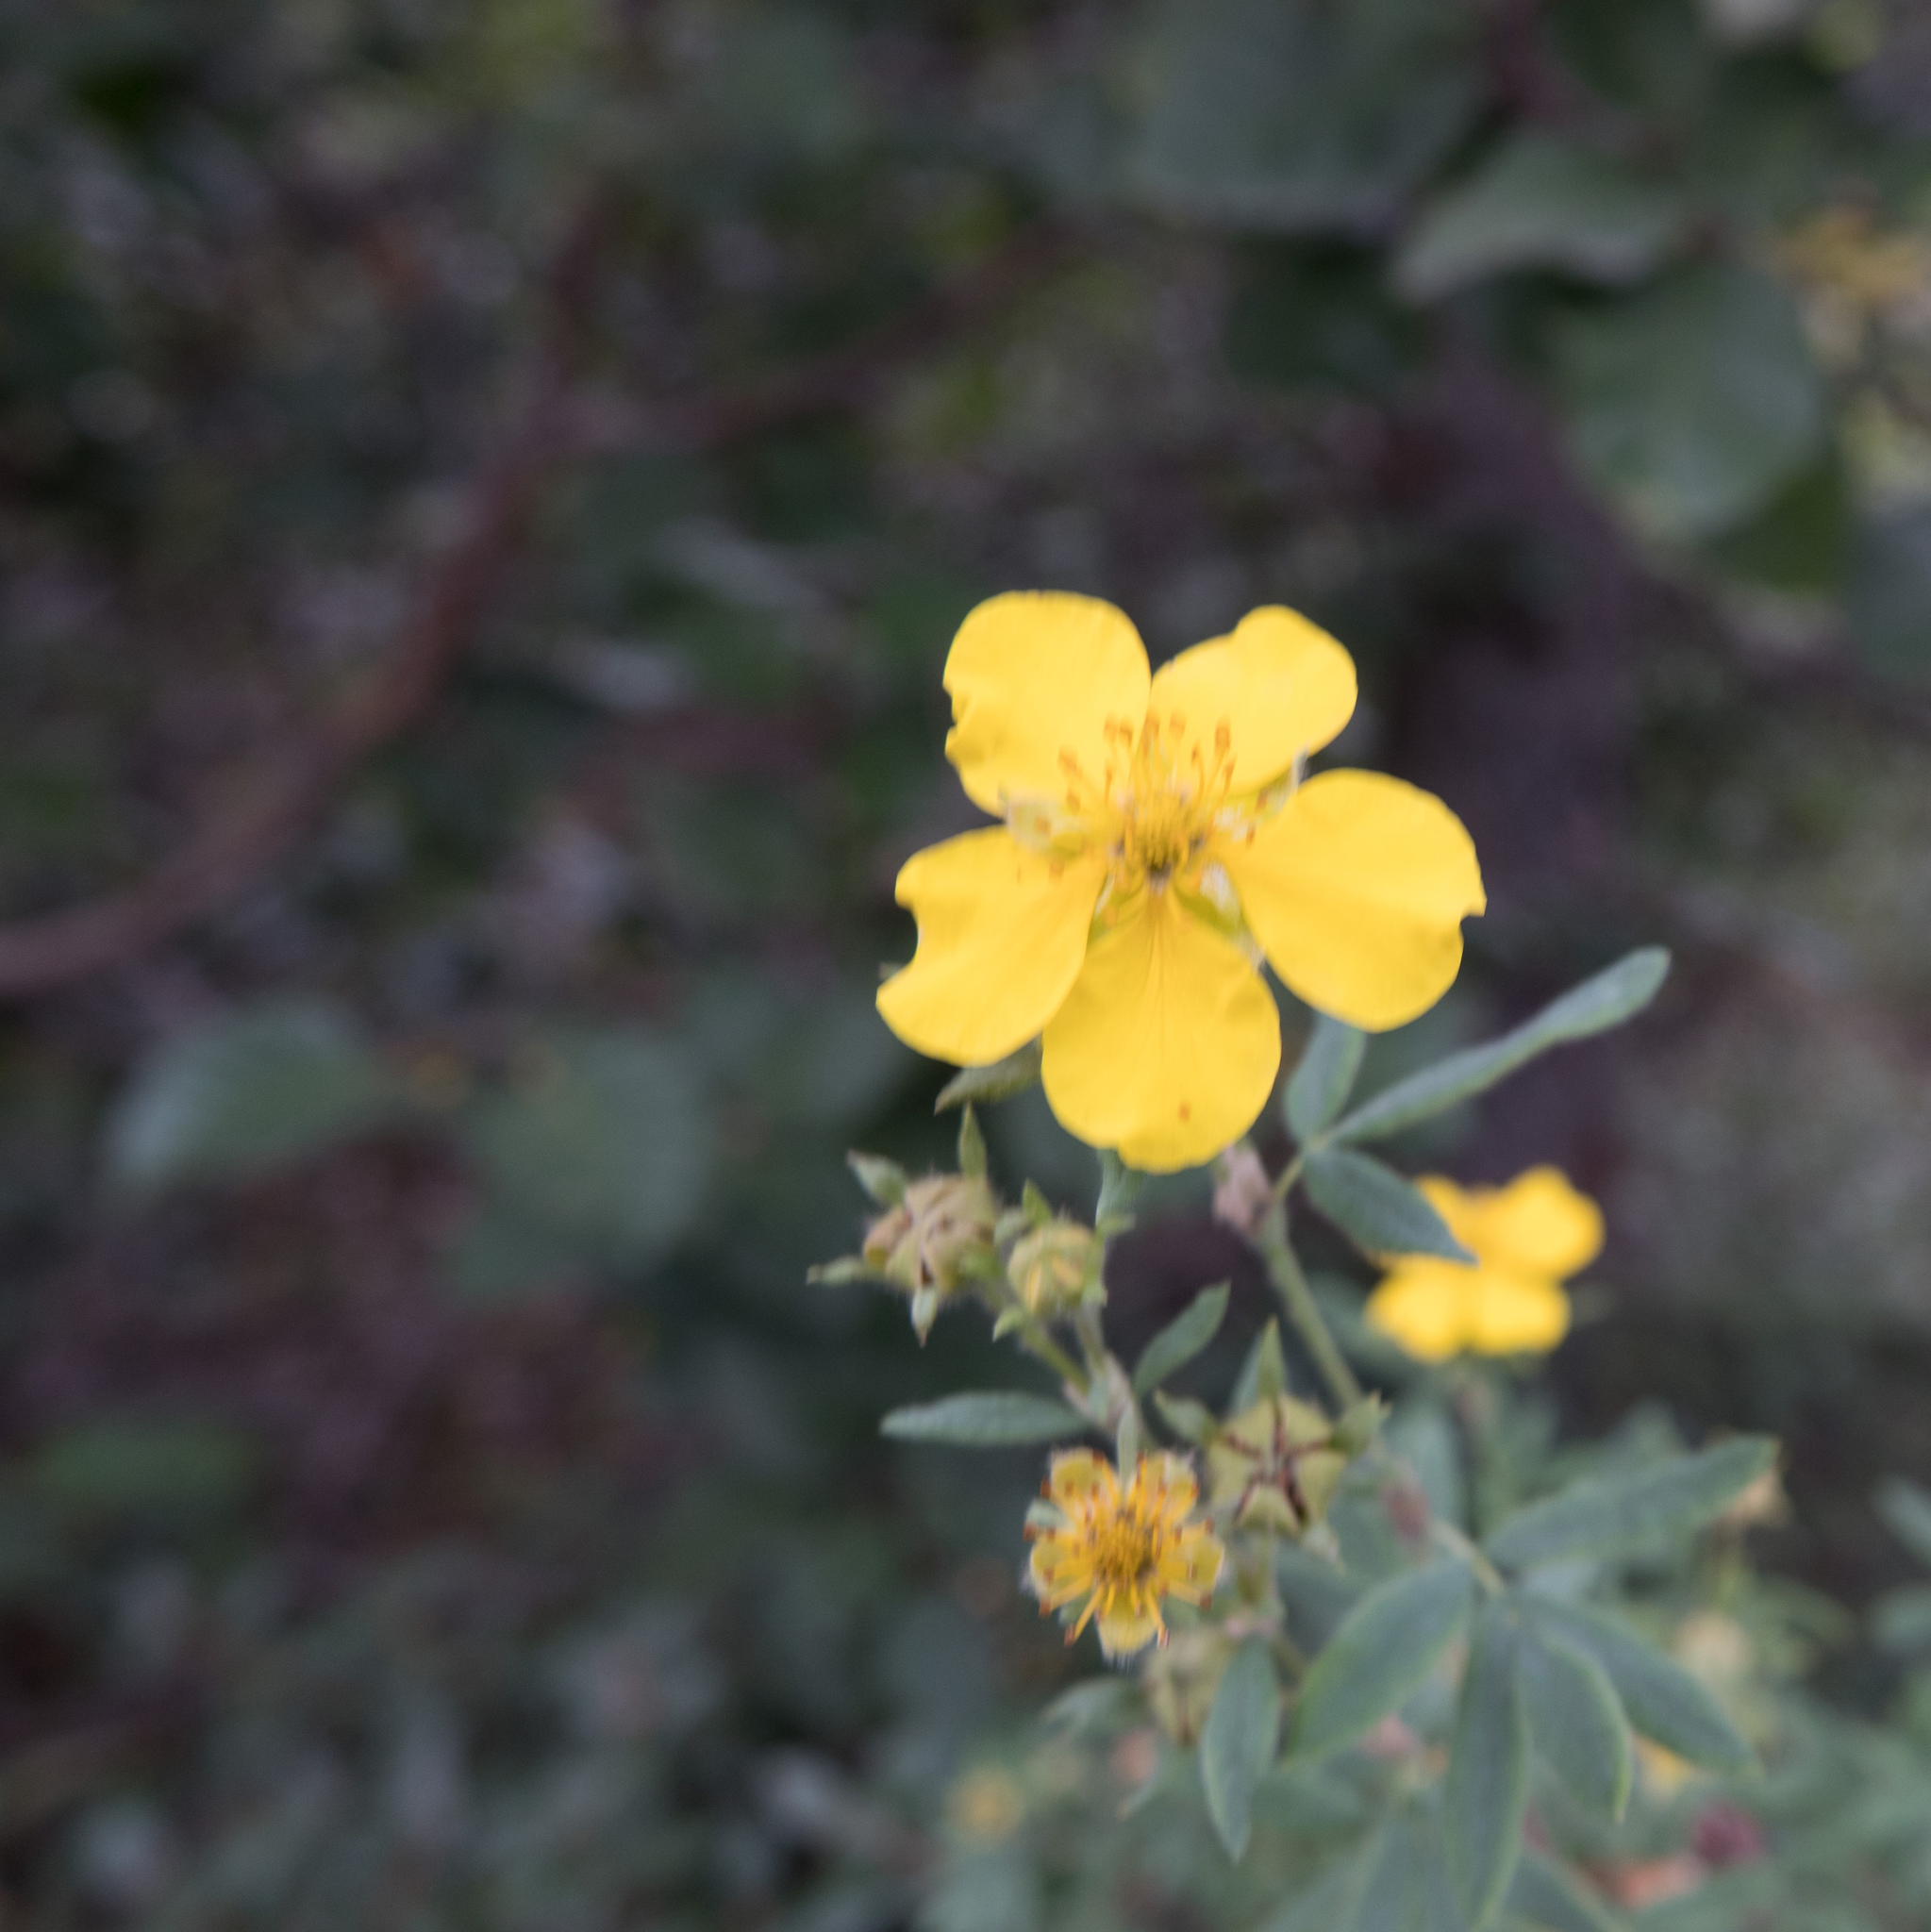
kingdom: Plantae
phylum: Tracheophyta
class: Magnoliopsida
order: Rosales
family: Rosaceae
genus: Dasiphora
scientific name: Dasiphora fruticosa
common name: Shrubby cinquefoil
